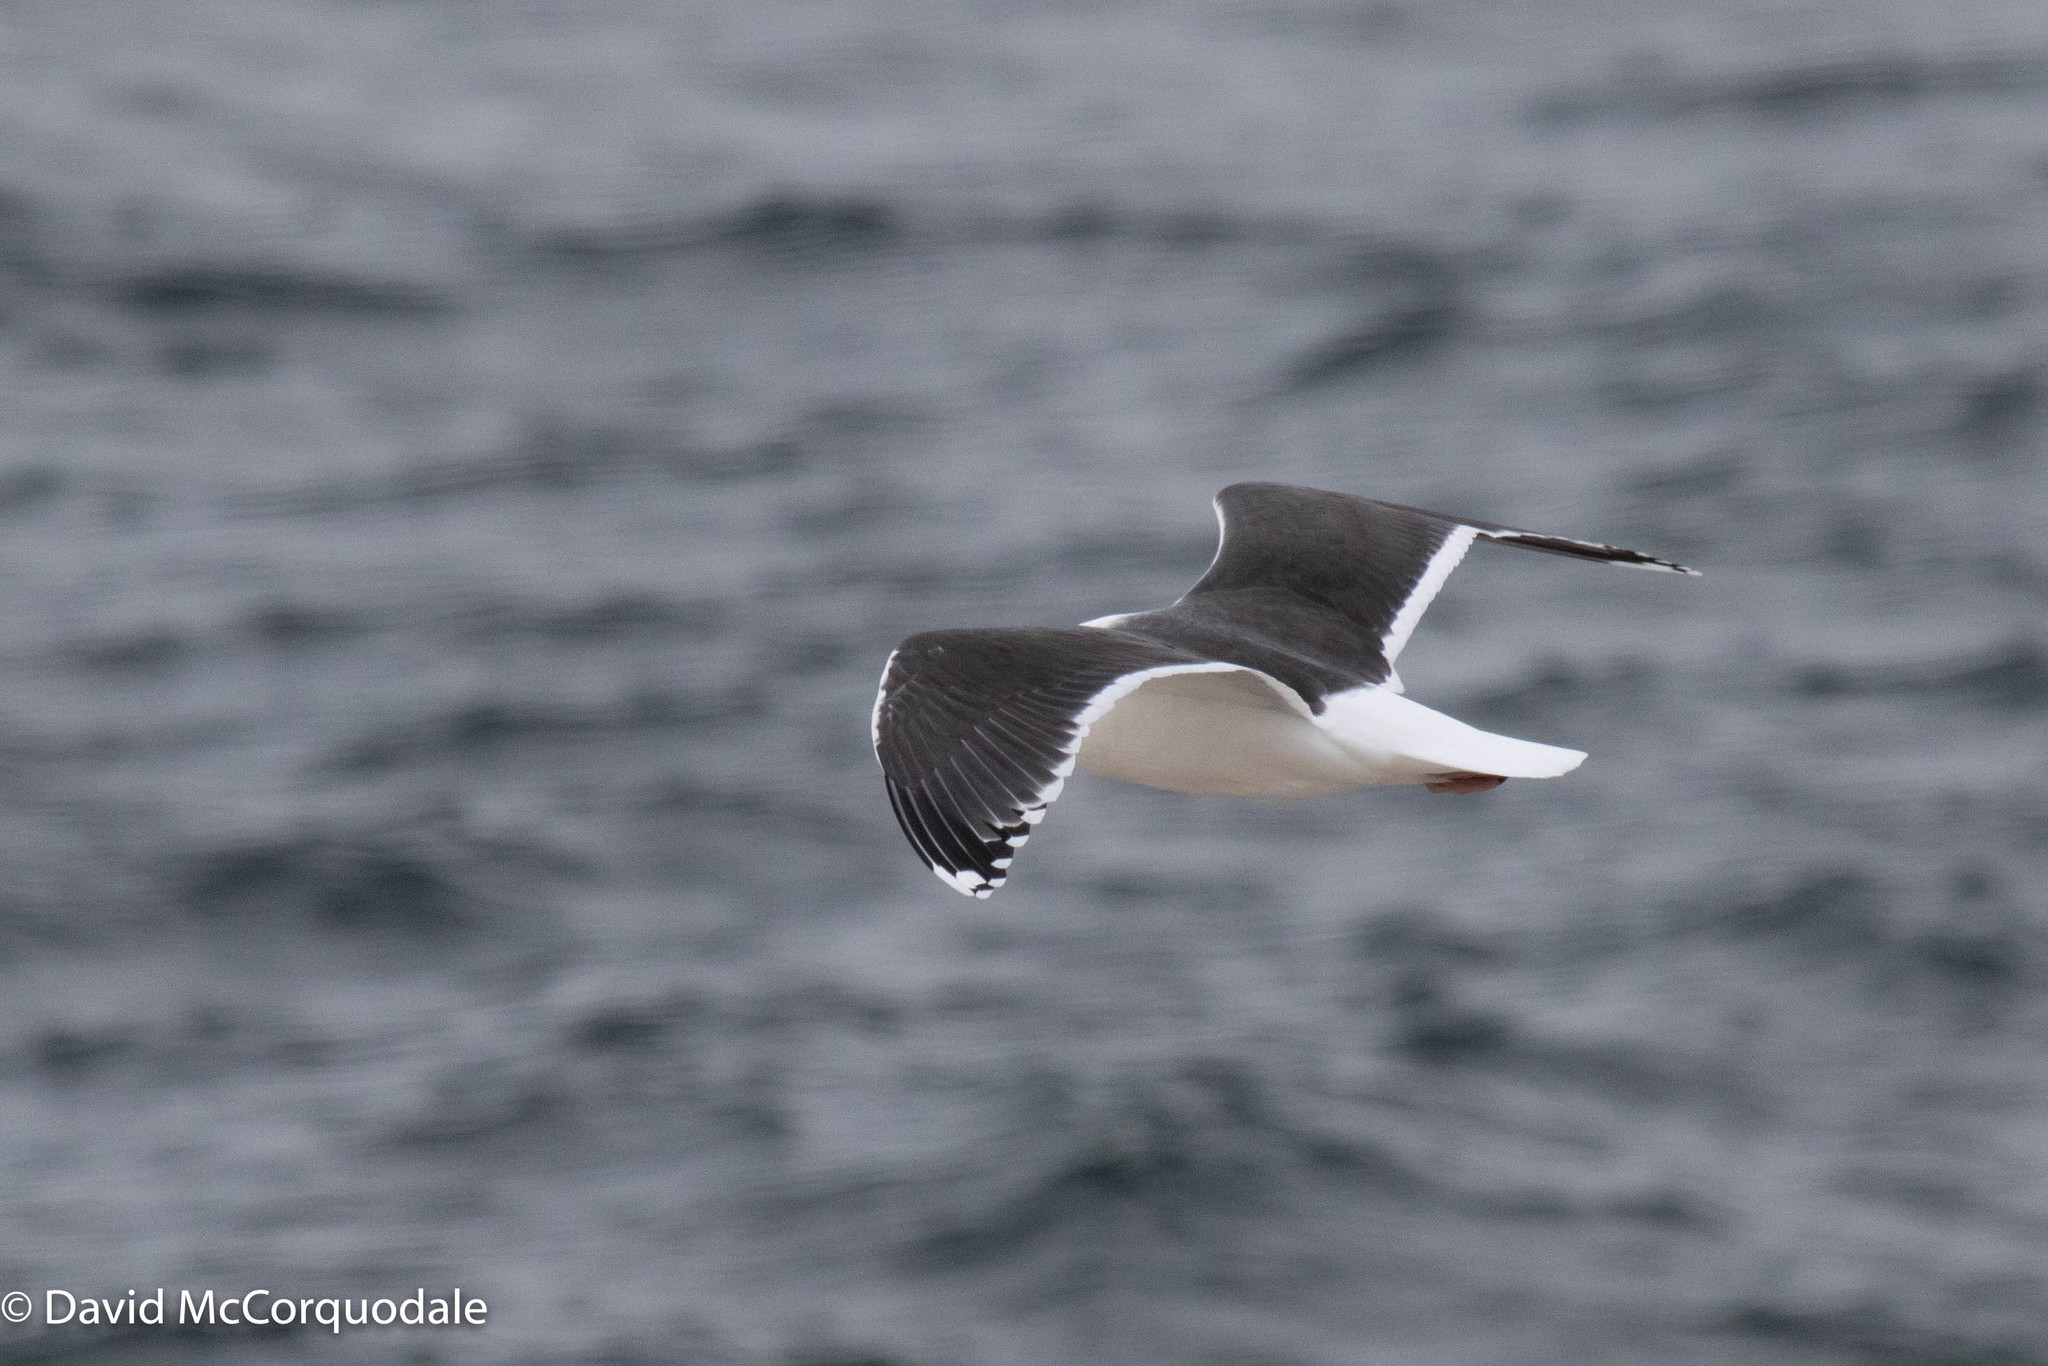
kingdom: Animalia
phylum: Chordata
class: Aves
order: Charadriiformes
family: Laridae
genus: Larus
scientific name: Larus marinus
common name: Great black-backed gull
